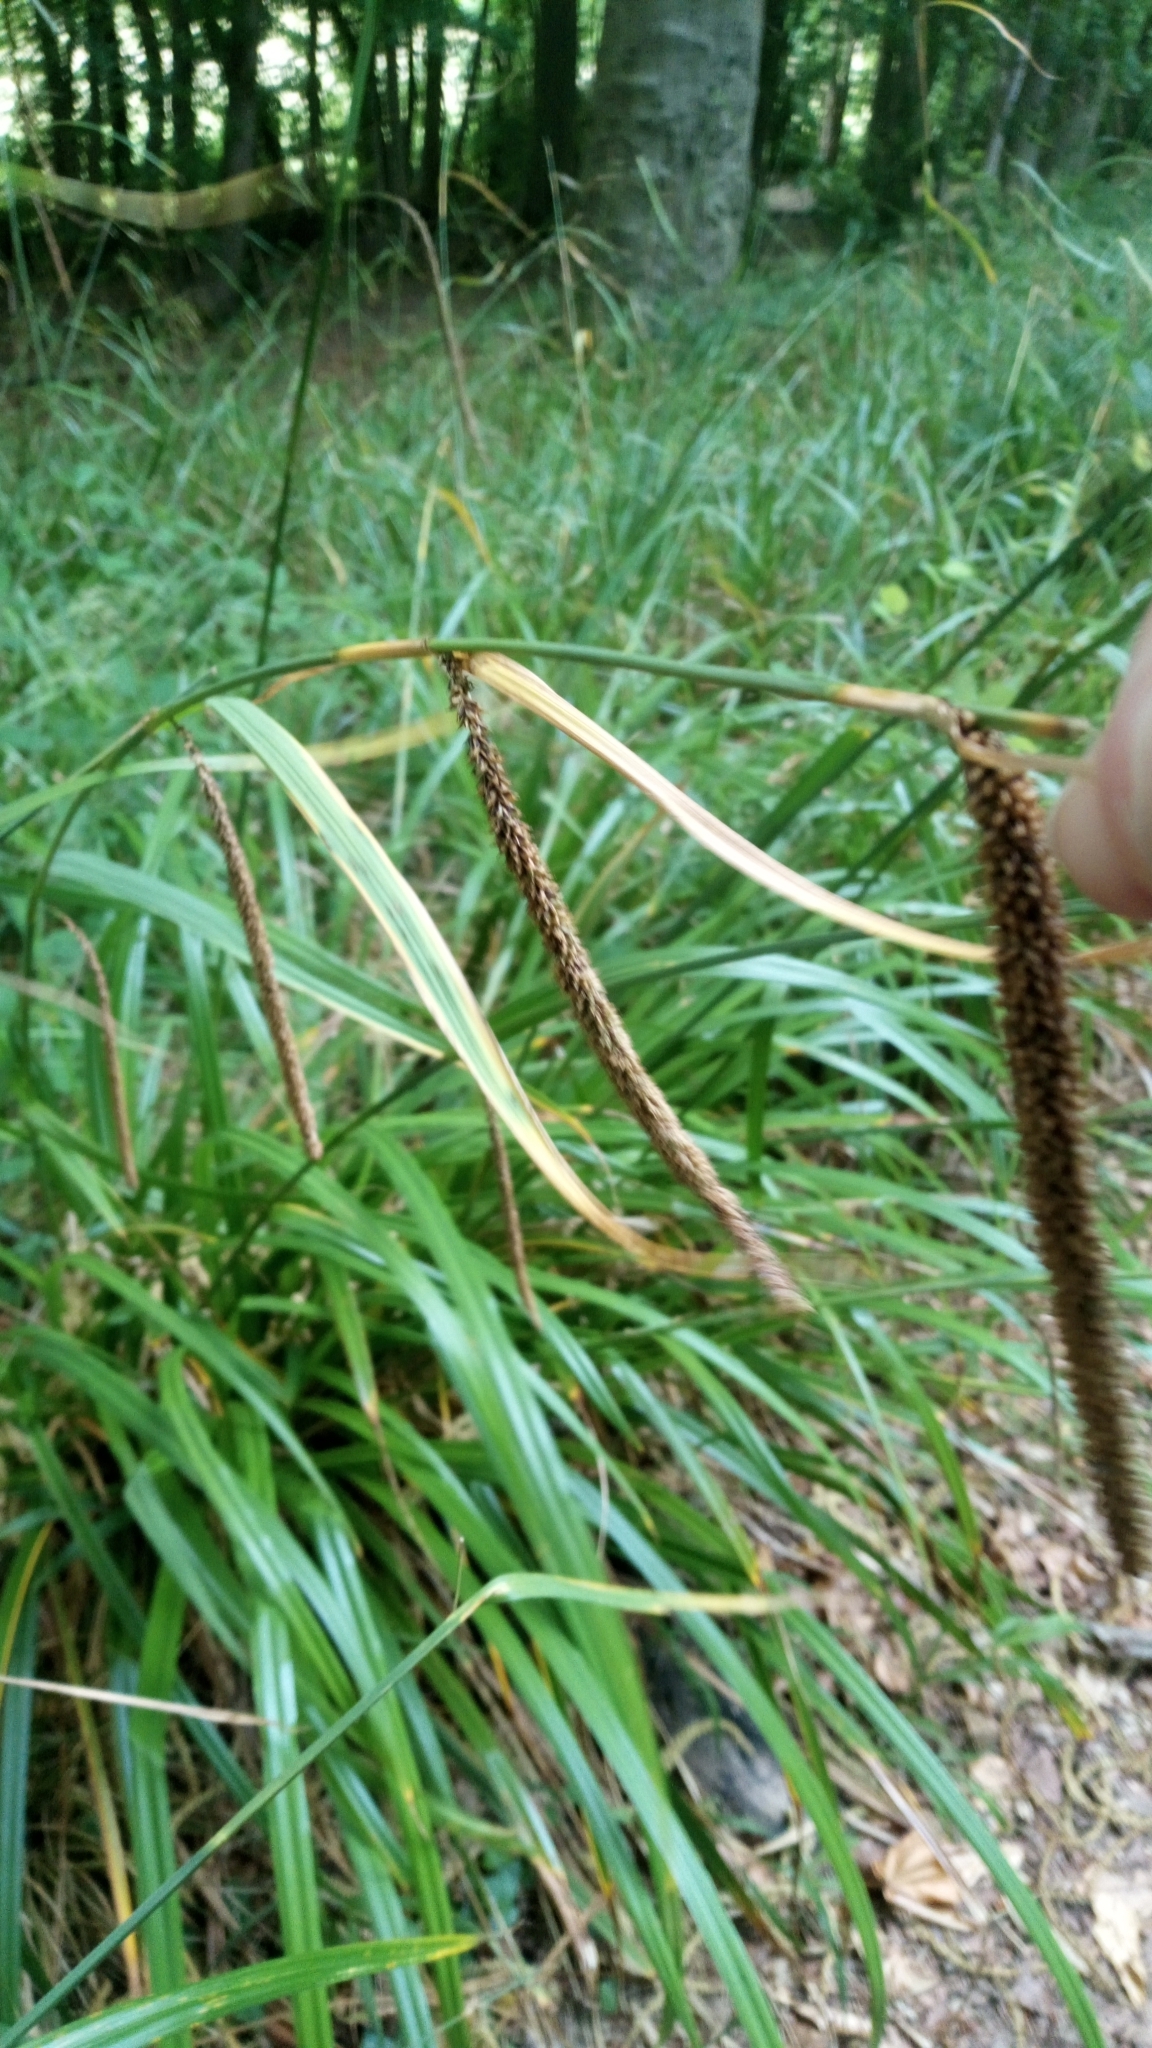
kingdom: Plantae
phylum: Tracheophyta
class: Liliopsida
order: Poales
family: Cyperaceae
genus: Carex
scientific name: Carex pendula
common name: Pendulous sedge
